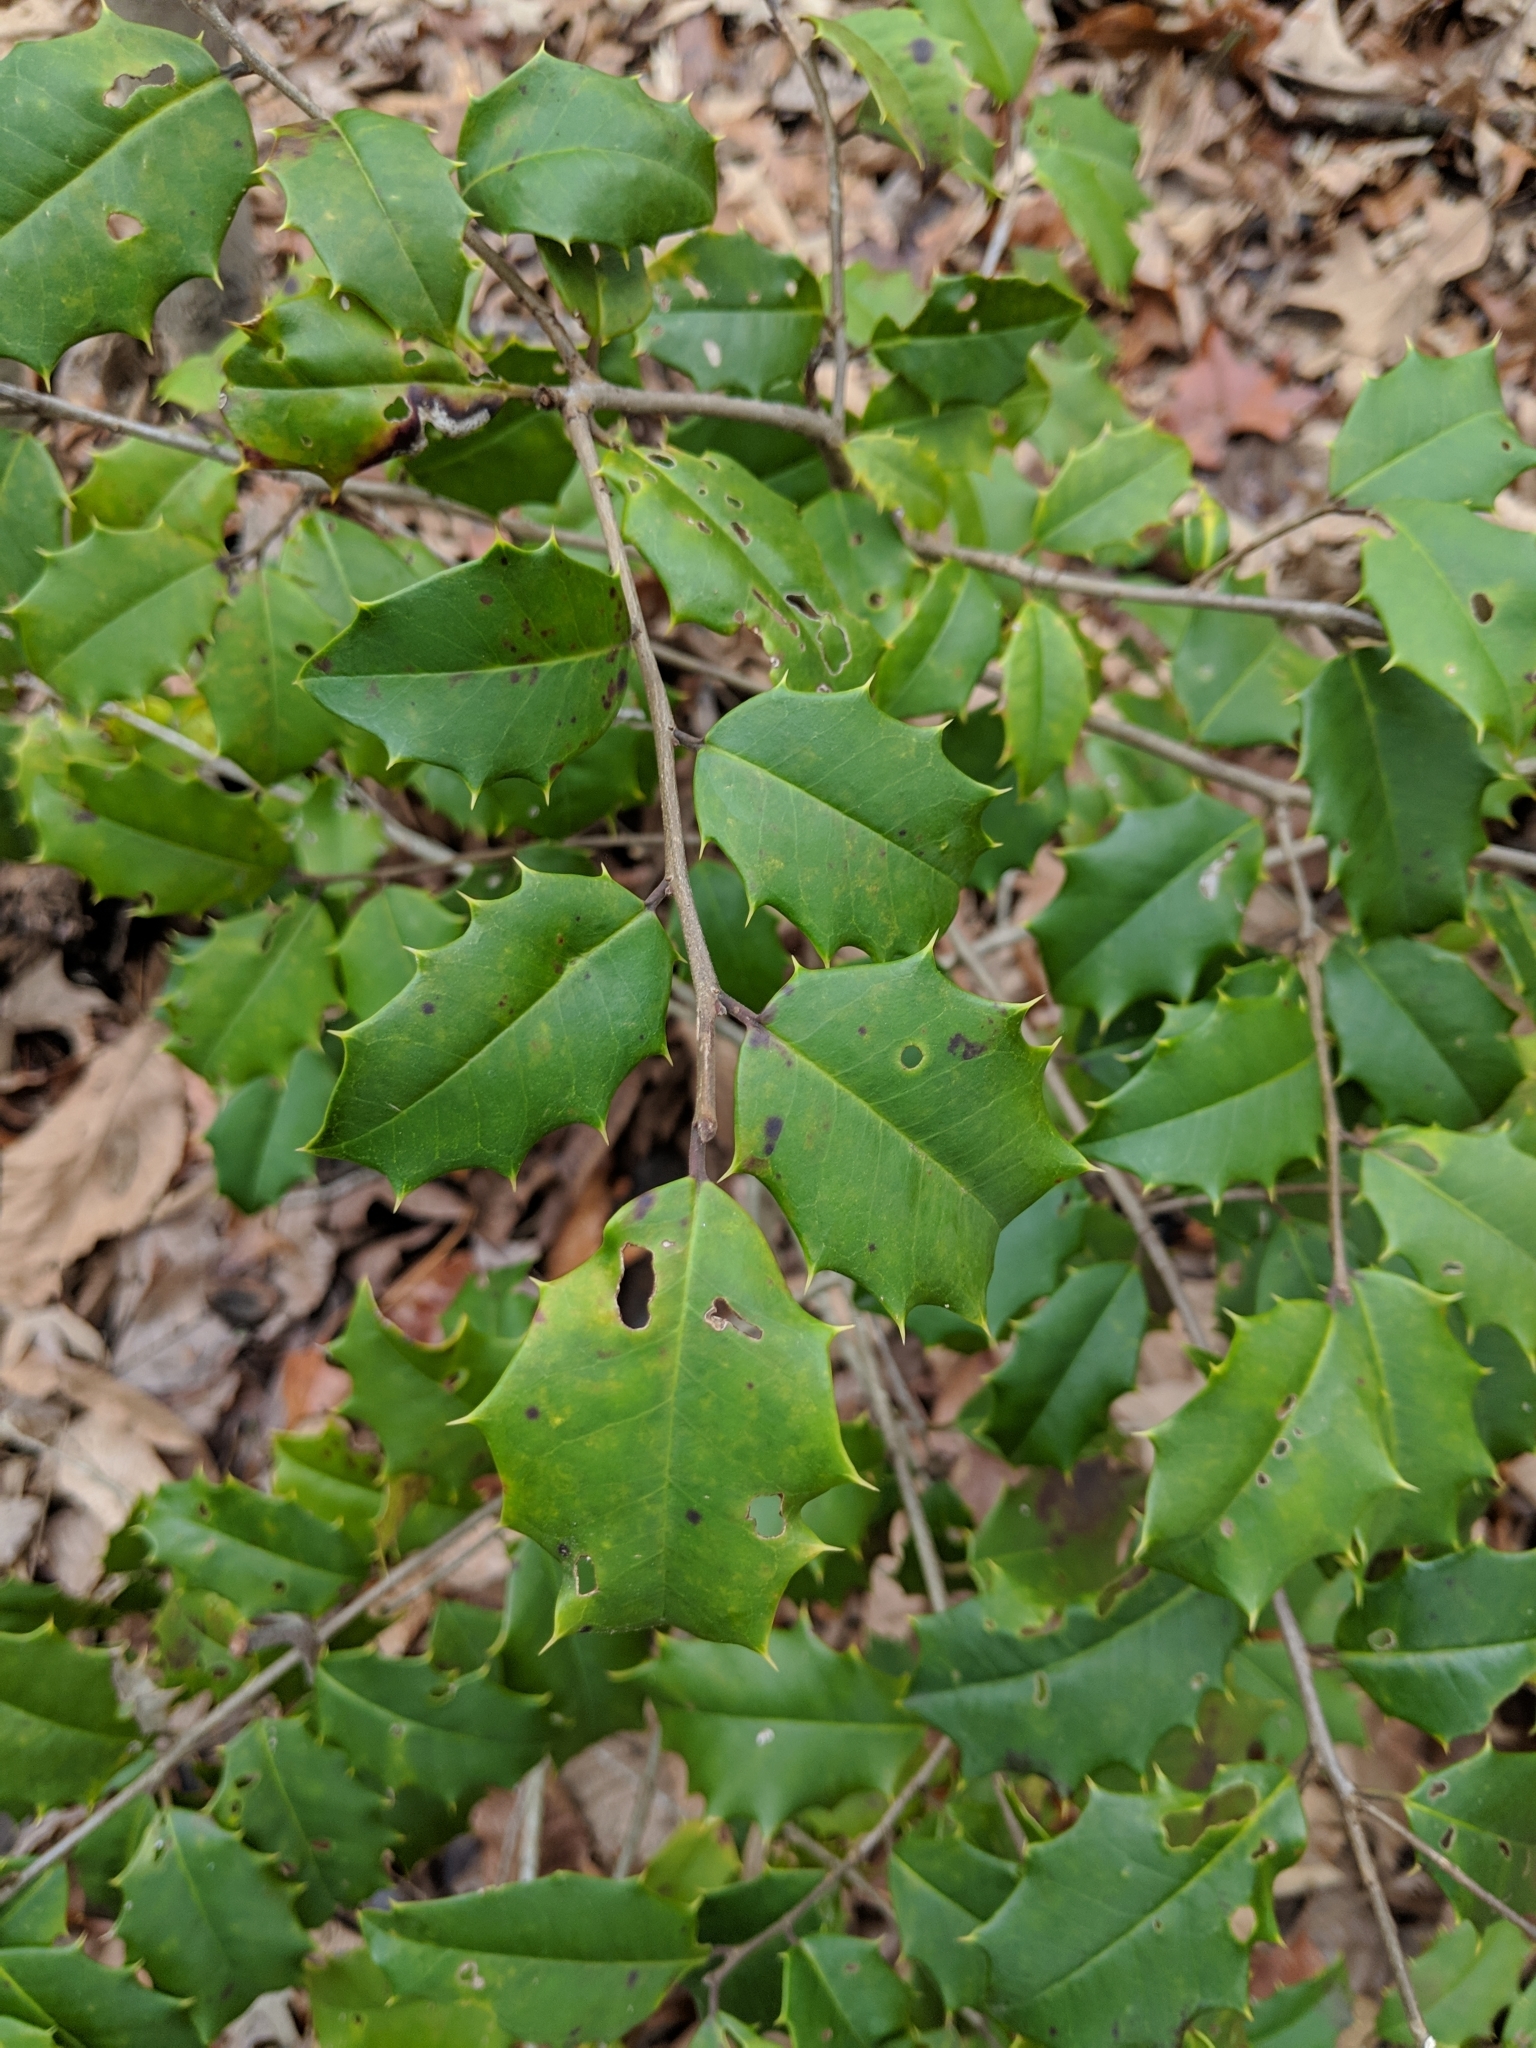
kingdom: Plantae
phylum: Tracheophyta
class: Magnoliopsida
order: Aquifoliales
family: Aquifoliaceae
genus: Ilex
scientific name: Ilex opaca
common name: American holly
